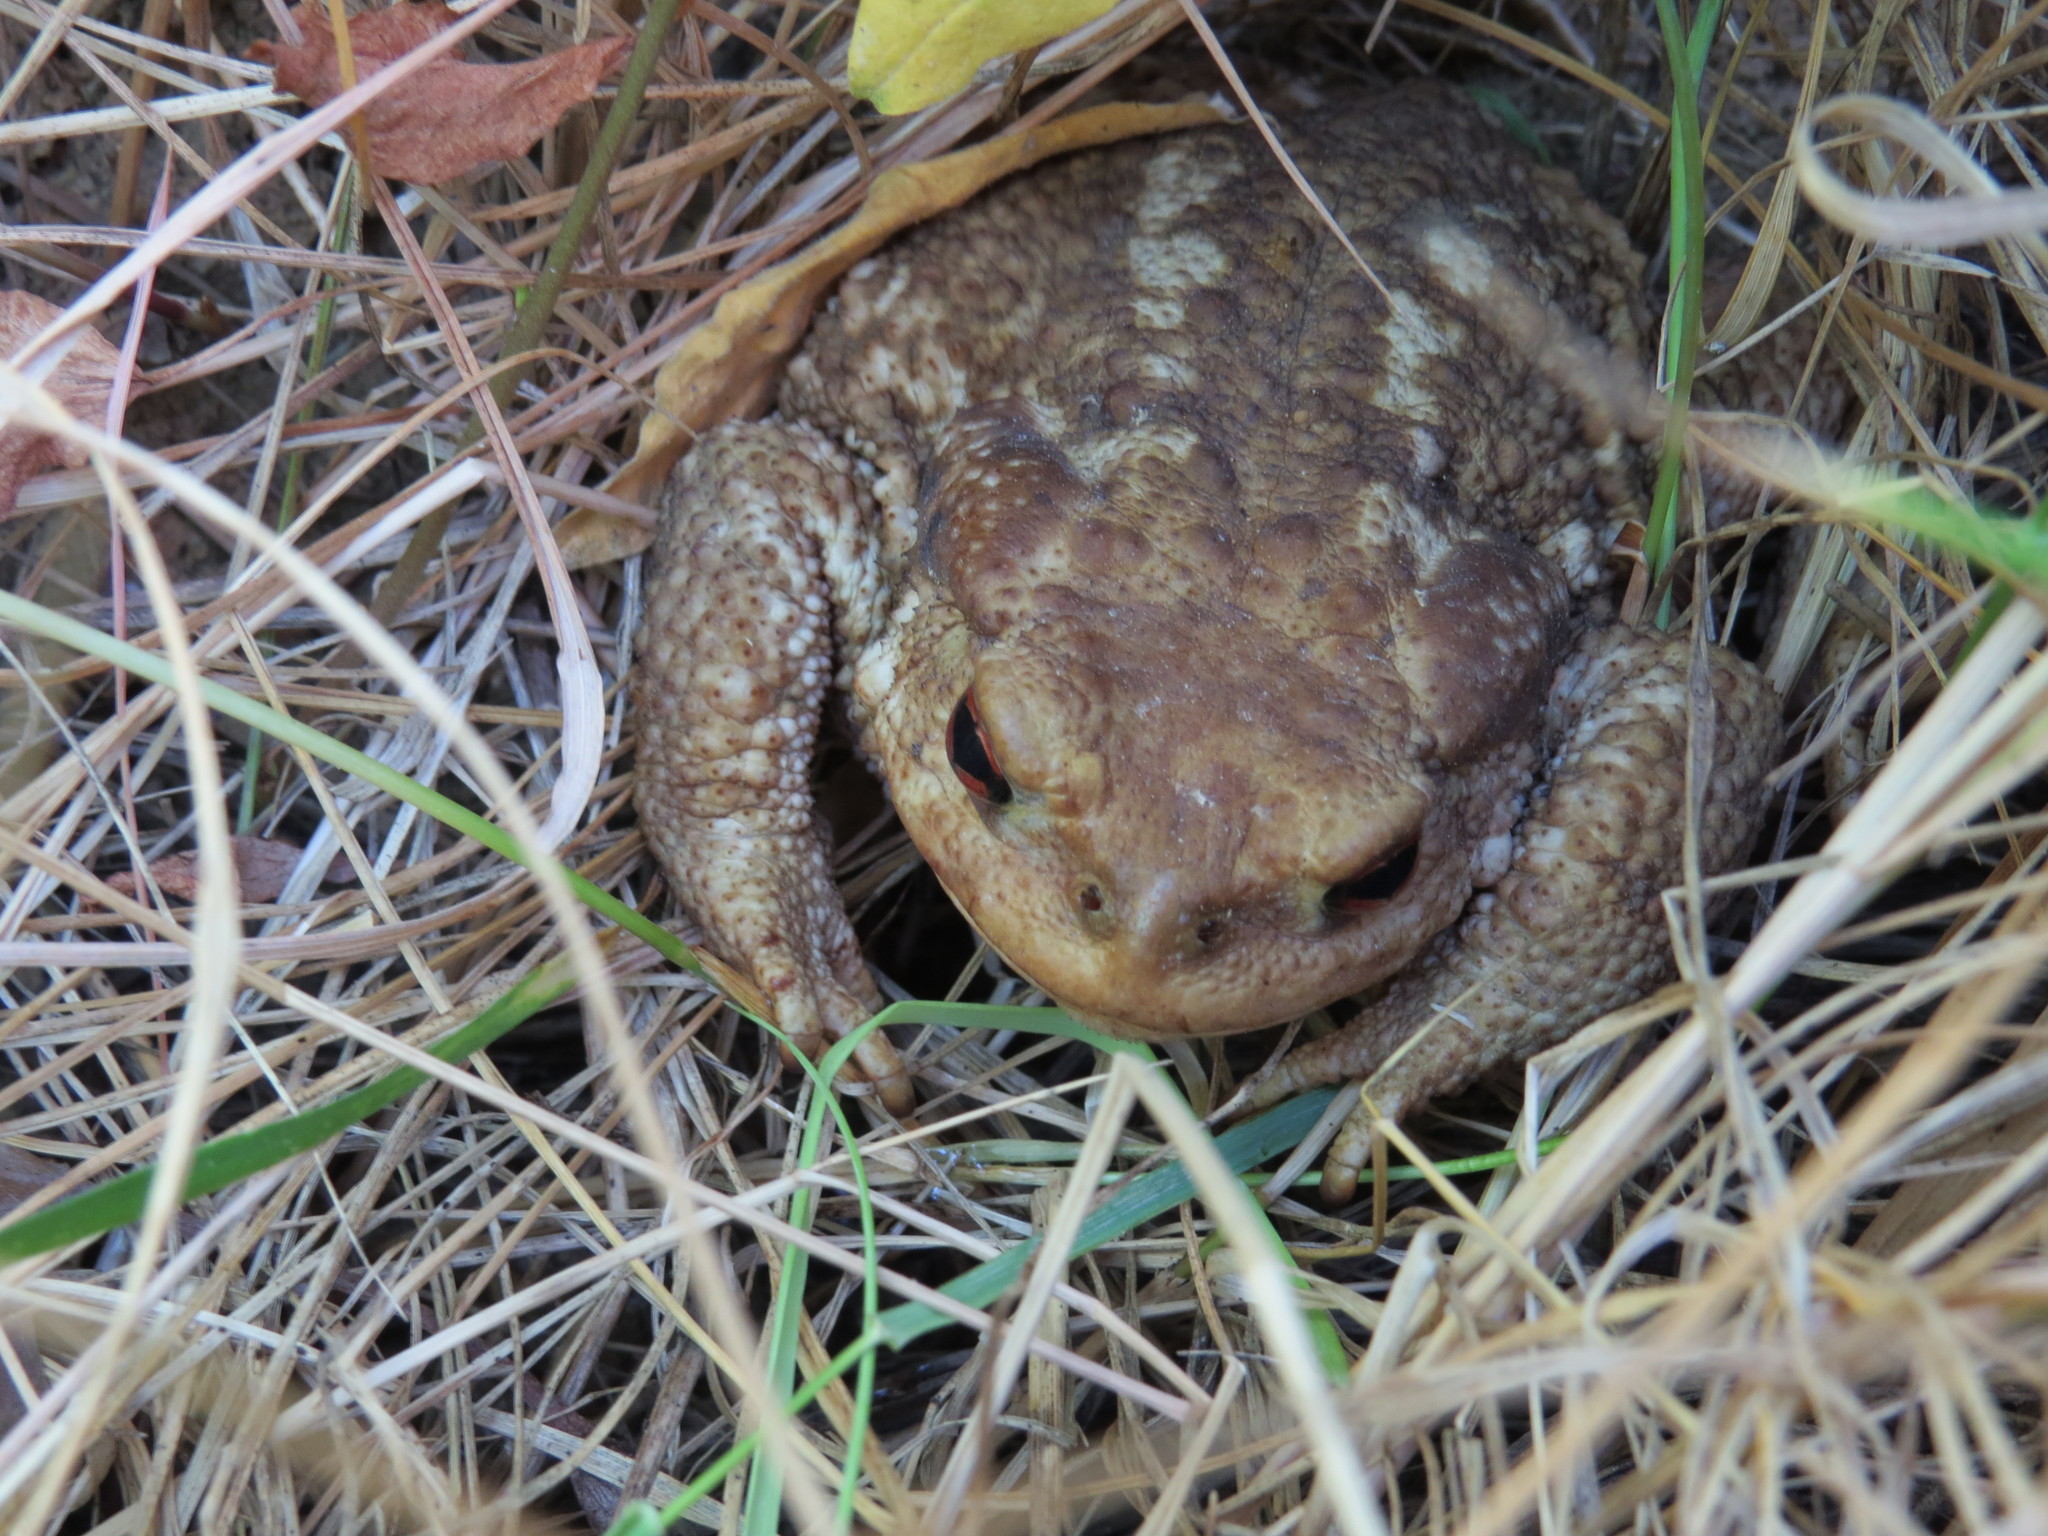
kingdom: Animalia
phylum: Chordata
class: Amphibia
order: Anura
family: Bufonidae
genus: Bufo
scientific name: Bufo spinosus
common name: Western common toad
